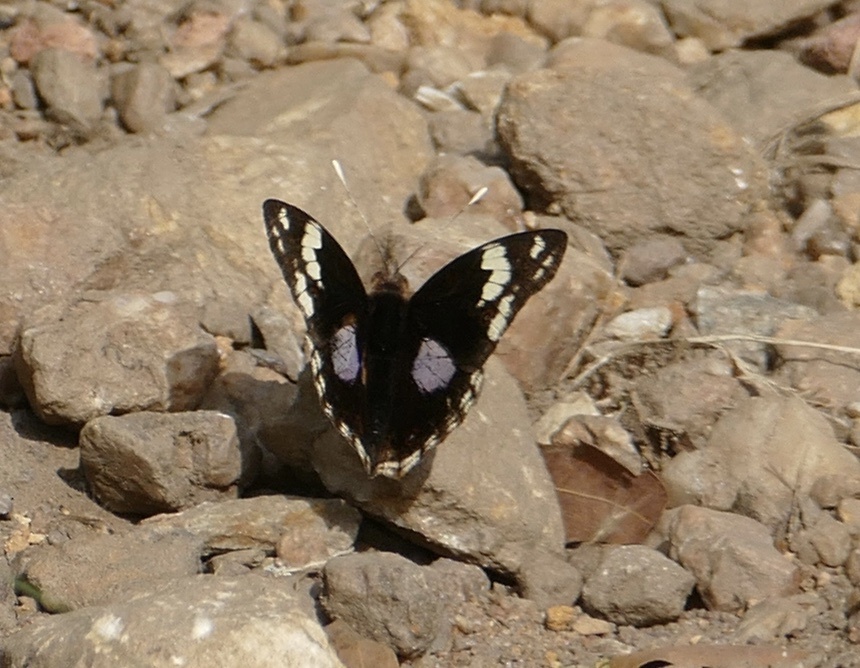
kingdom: Animalia
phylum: Arthropoda
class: Insecta
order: Lepidoptera
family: Nymphalidae
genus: Junonia
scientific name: Junonia oenone
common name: Dark blue pansy
